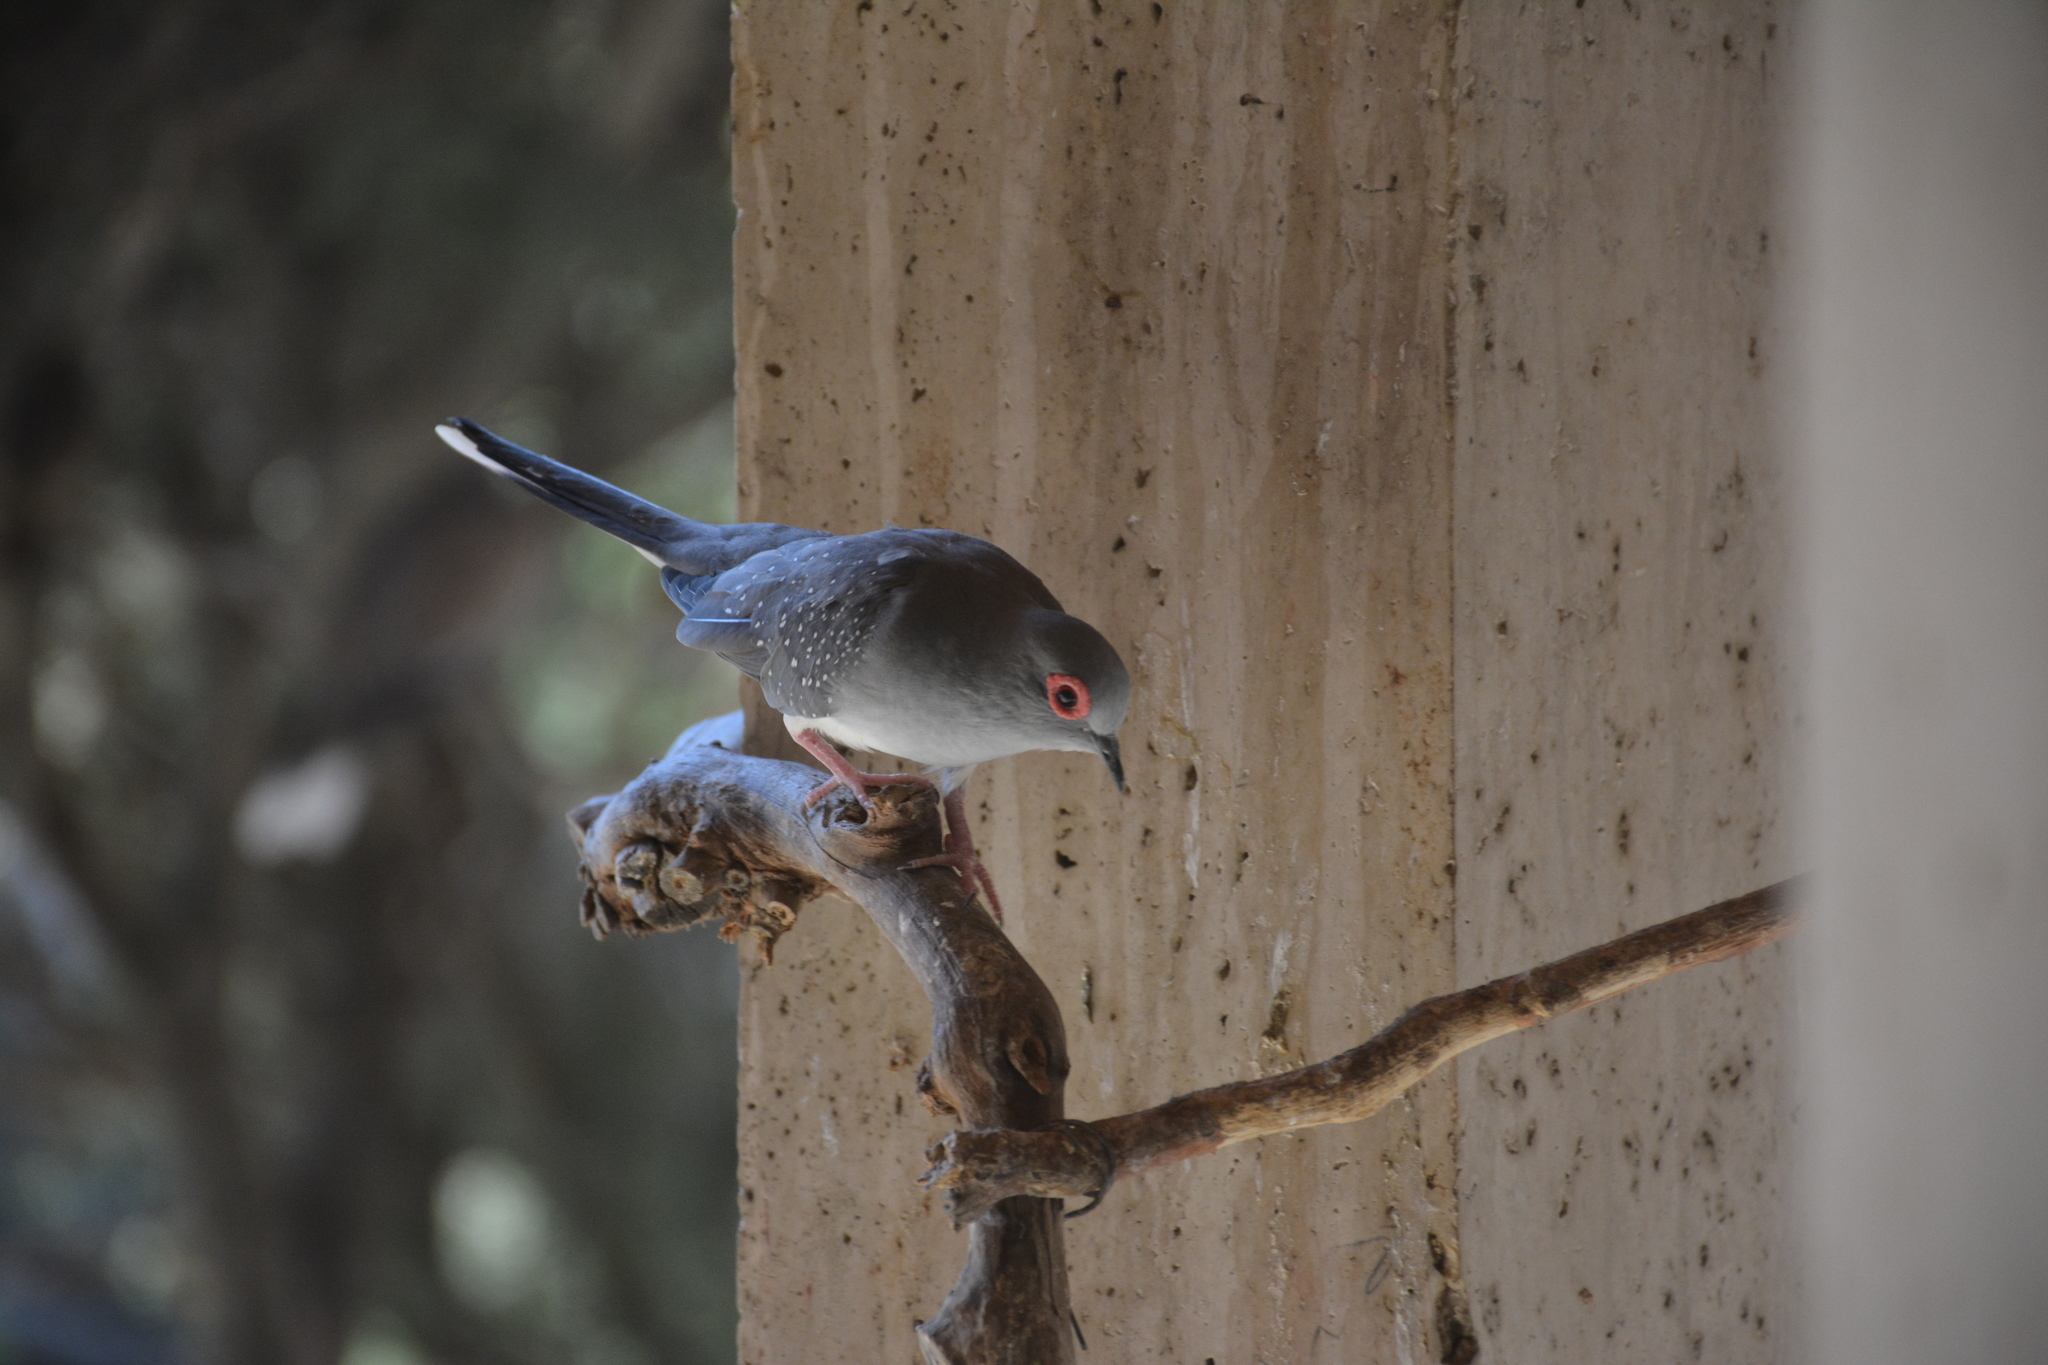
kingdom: Animalia
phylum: Chordata
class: Aves
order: Columbiformes
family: Columbidae
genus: Geopelia
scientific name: Geopelia cuneata
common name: Diamond dove
